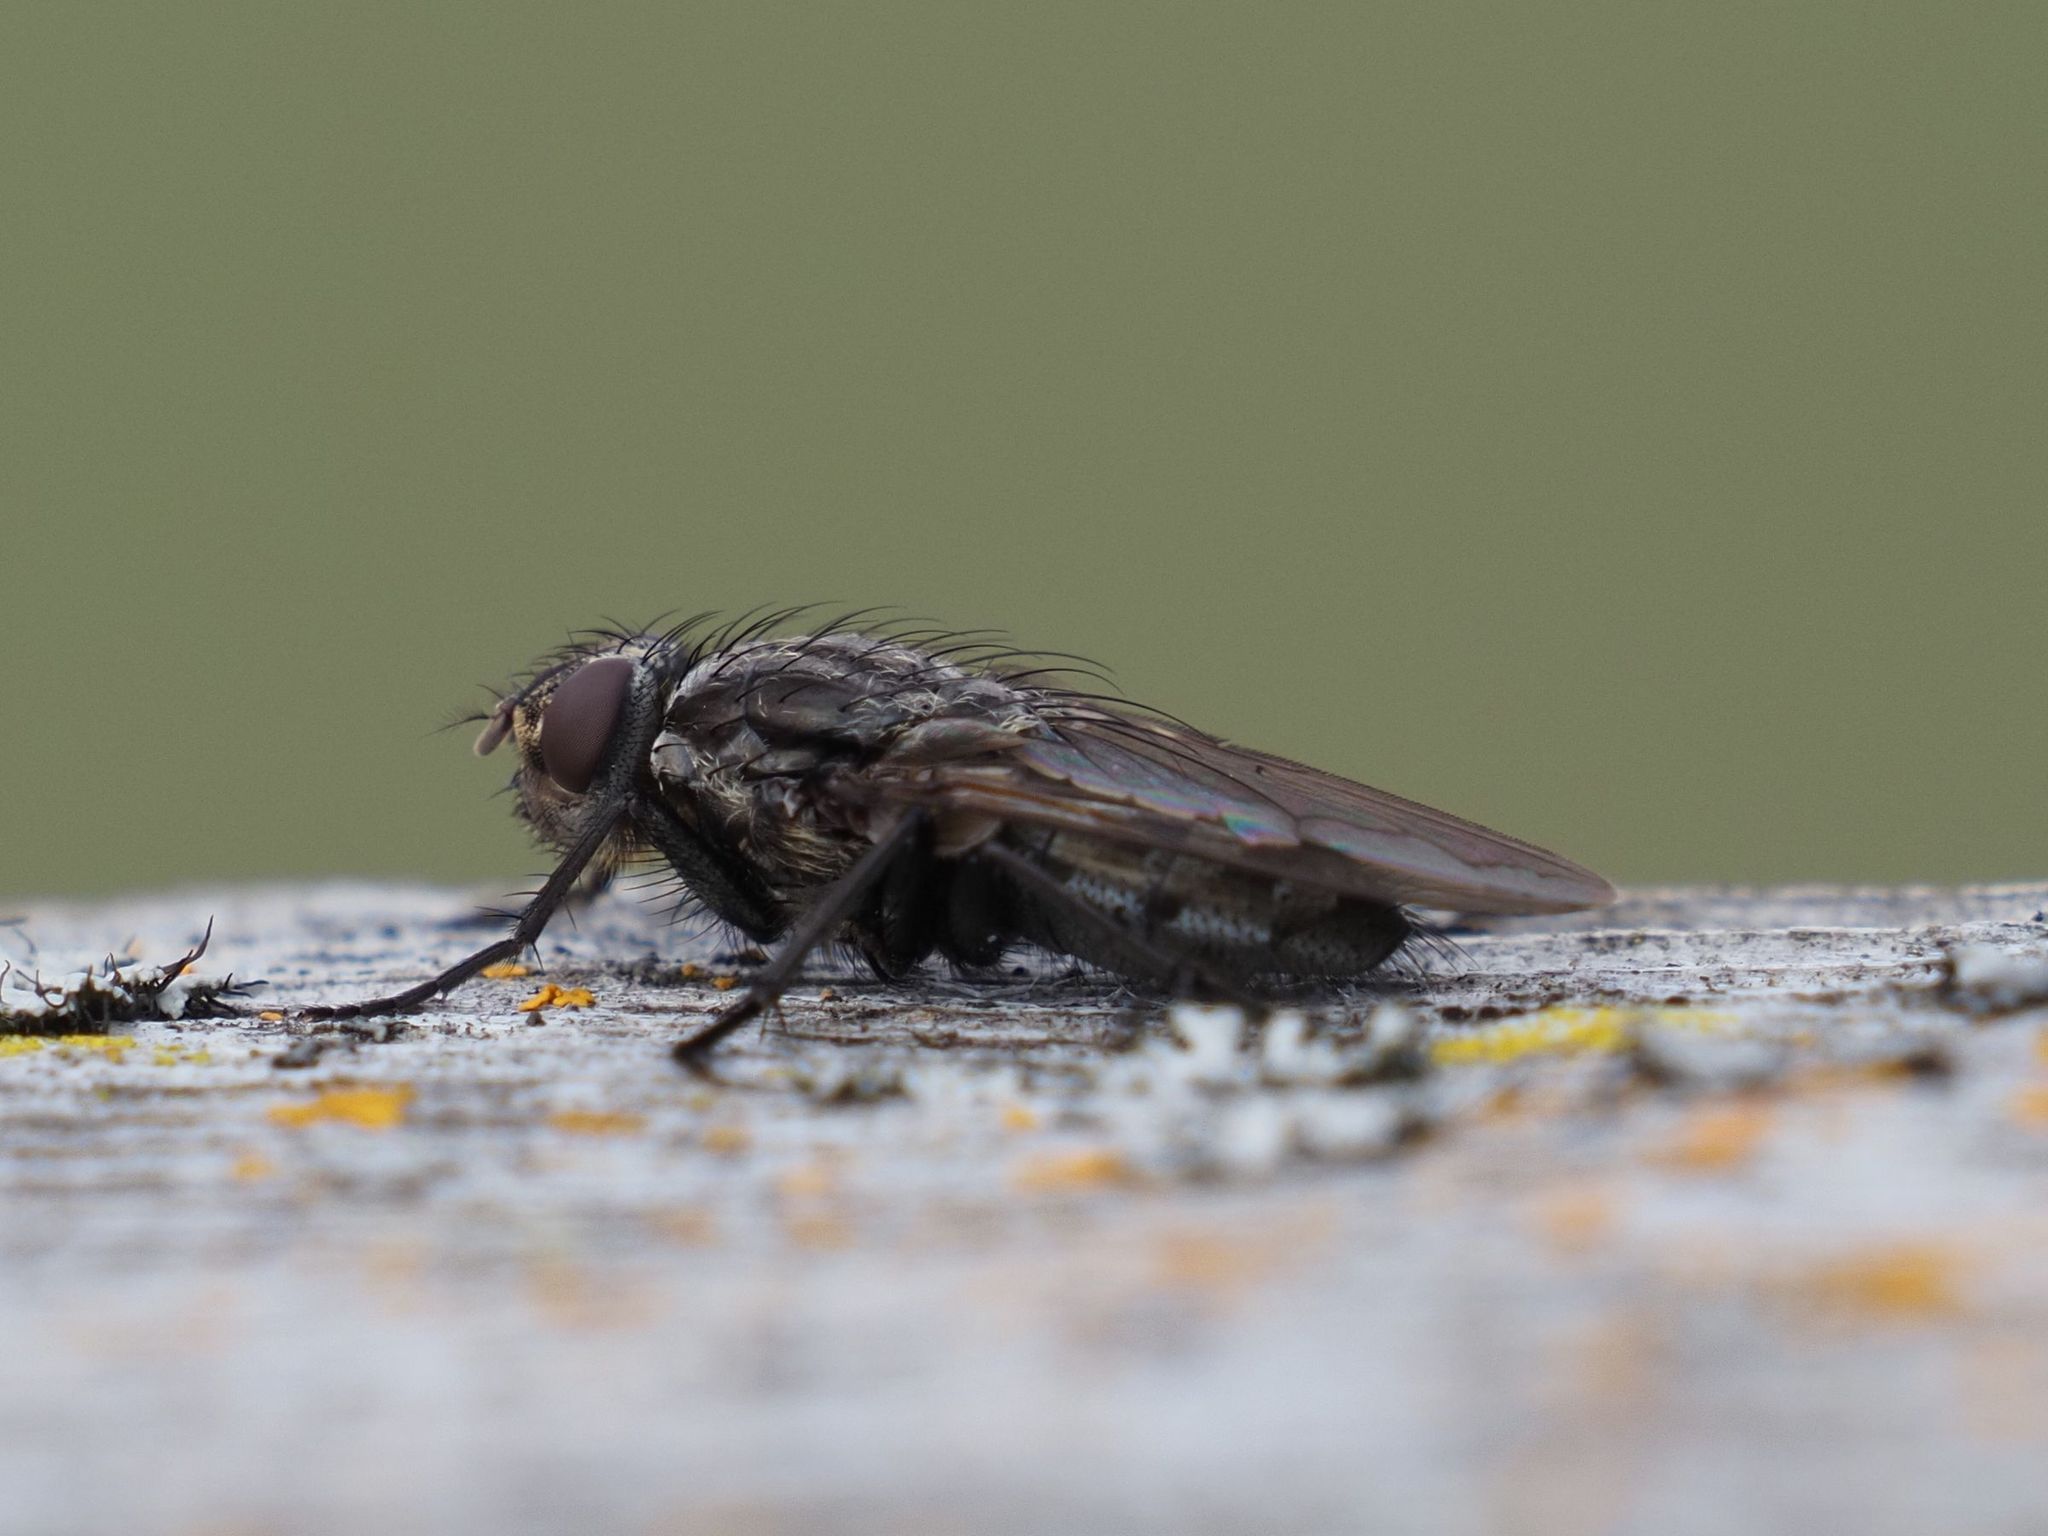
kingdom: Animalia
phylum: Arthropoda
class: Insecta
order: Diptera
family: Polleniidae
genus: Pollenia
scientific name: Pollenia vagabunda
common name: Vagabund cluster fly
